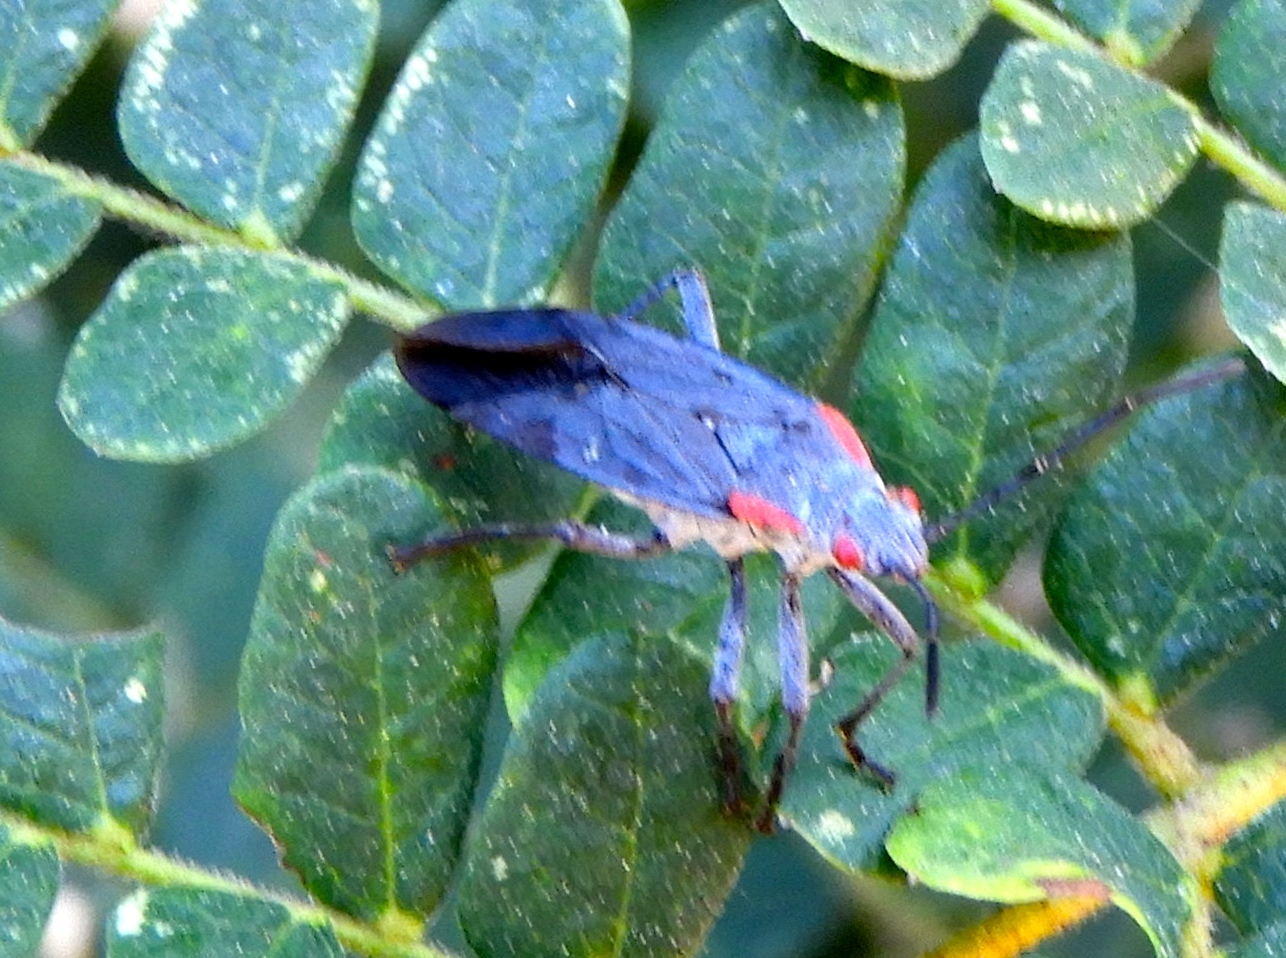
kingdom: Animalia
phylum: Arthropoda
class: Insecta
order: Hemiptera
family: Rhopalidae
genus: Jadera
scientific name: Jadera
